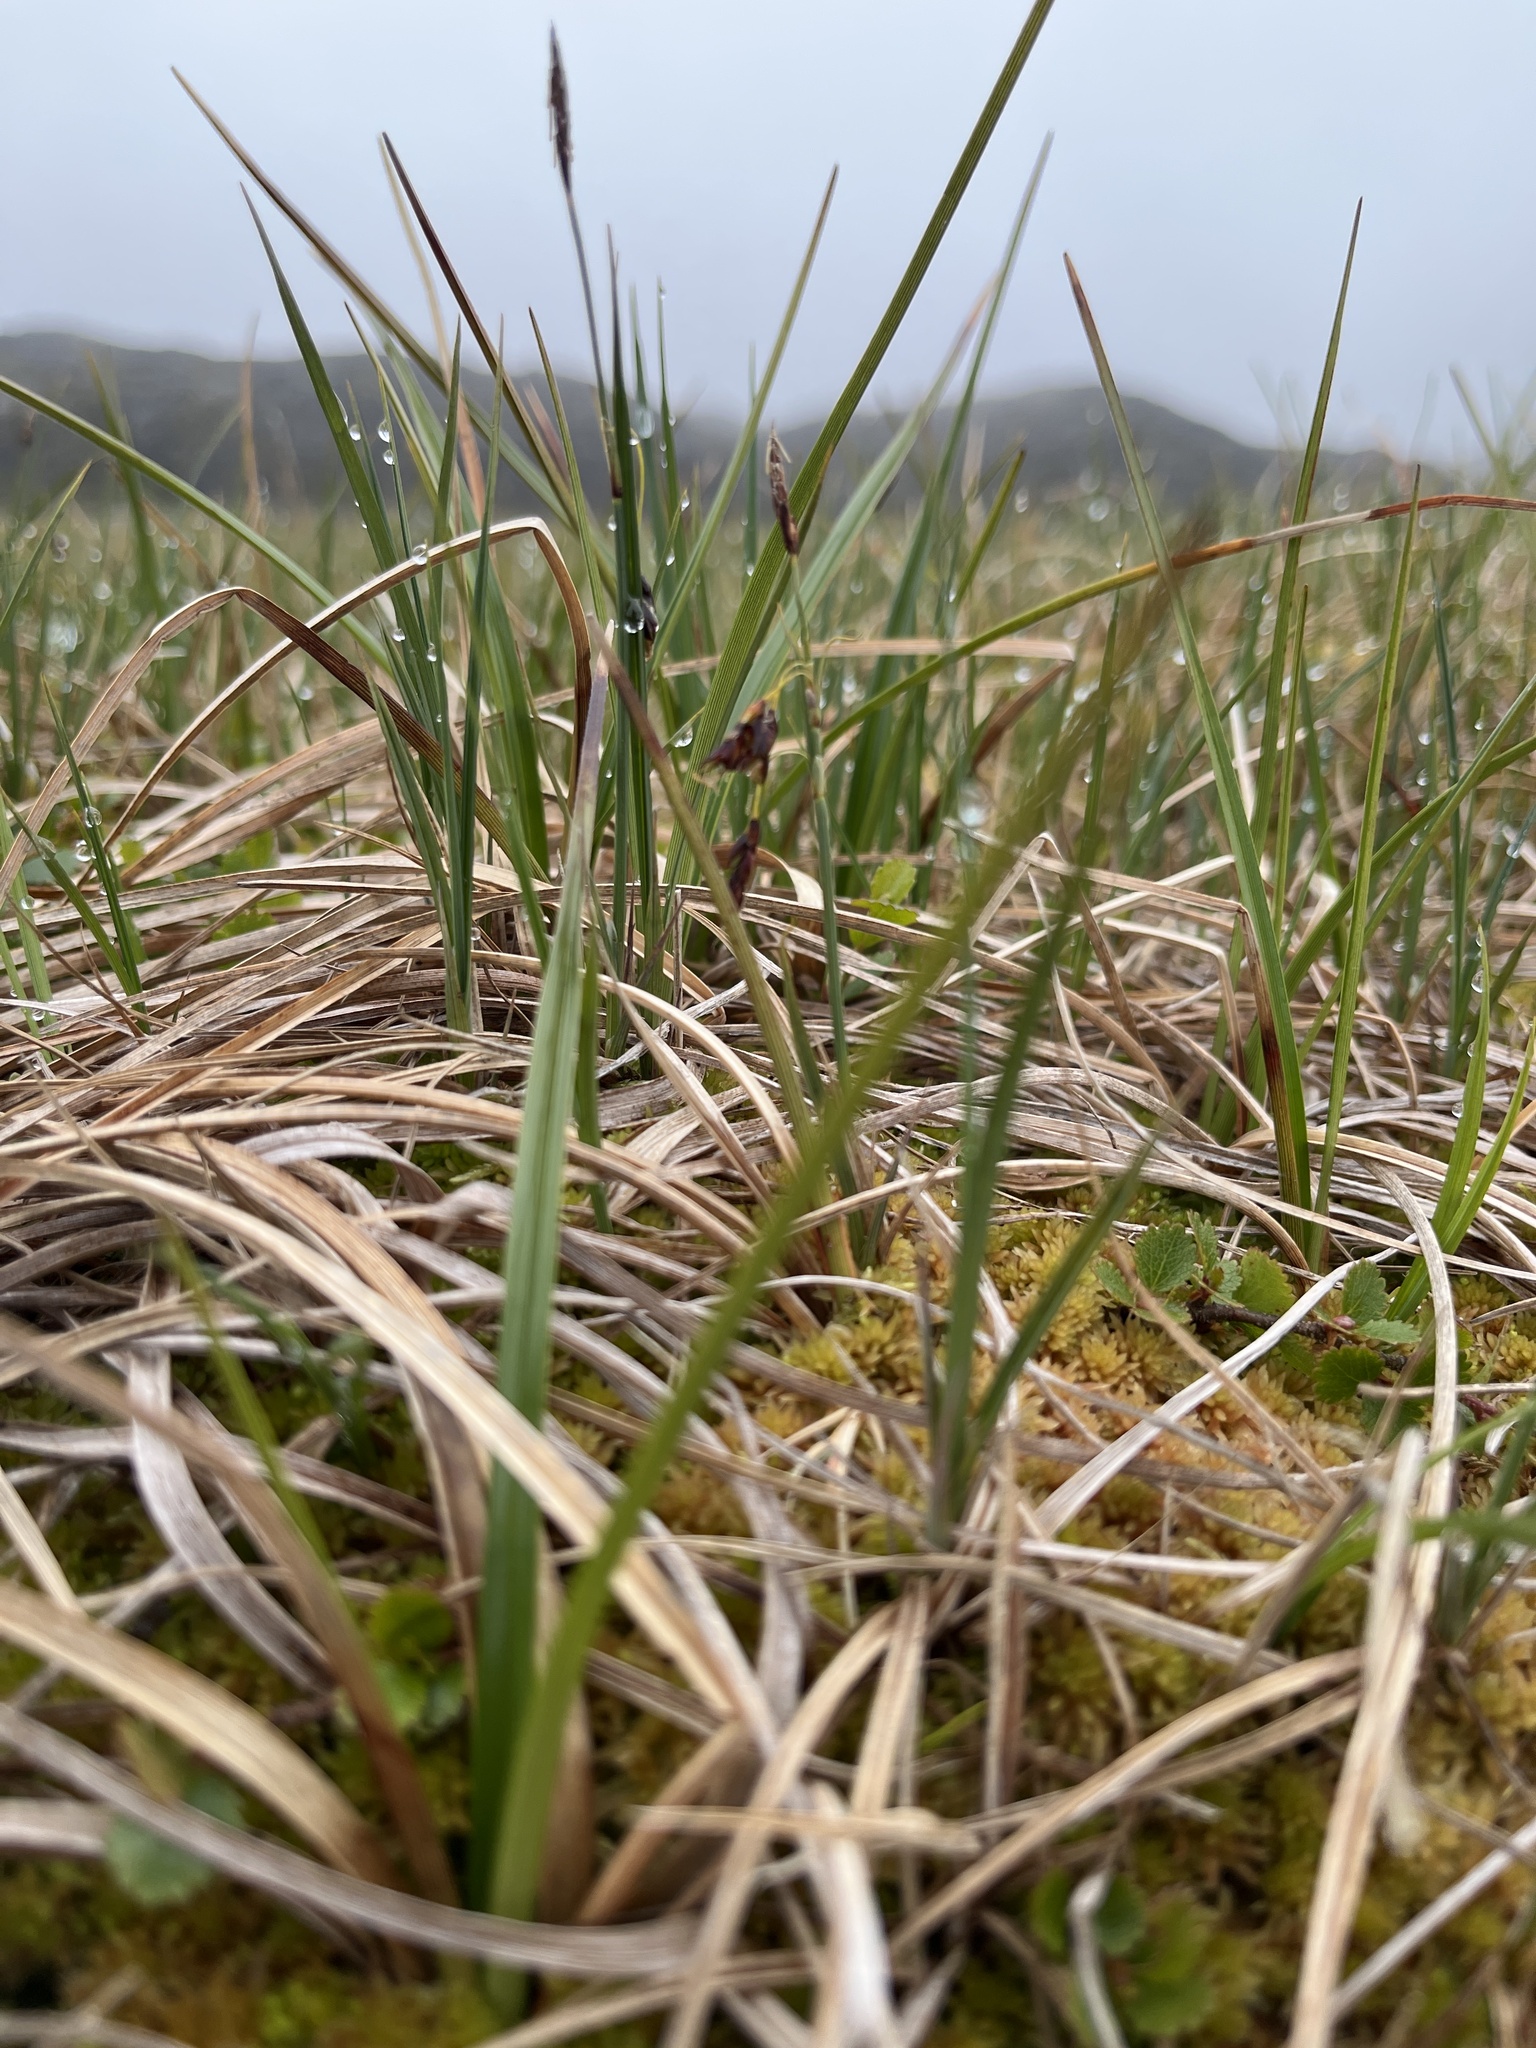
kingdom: Plantae
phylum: Tracheophyta
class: Liliopsida
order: Poales
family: Cyperaceae
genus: Carex
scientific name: Carex rariflora
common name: Loose-flowered alpine sedge
